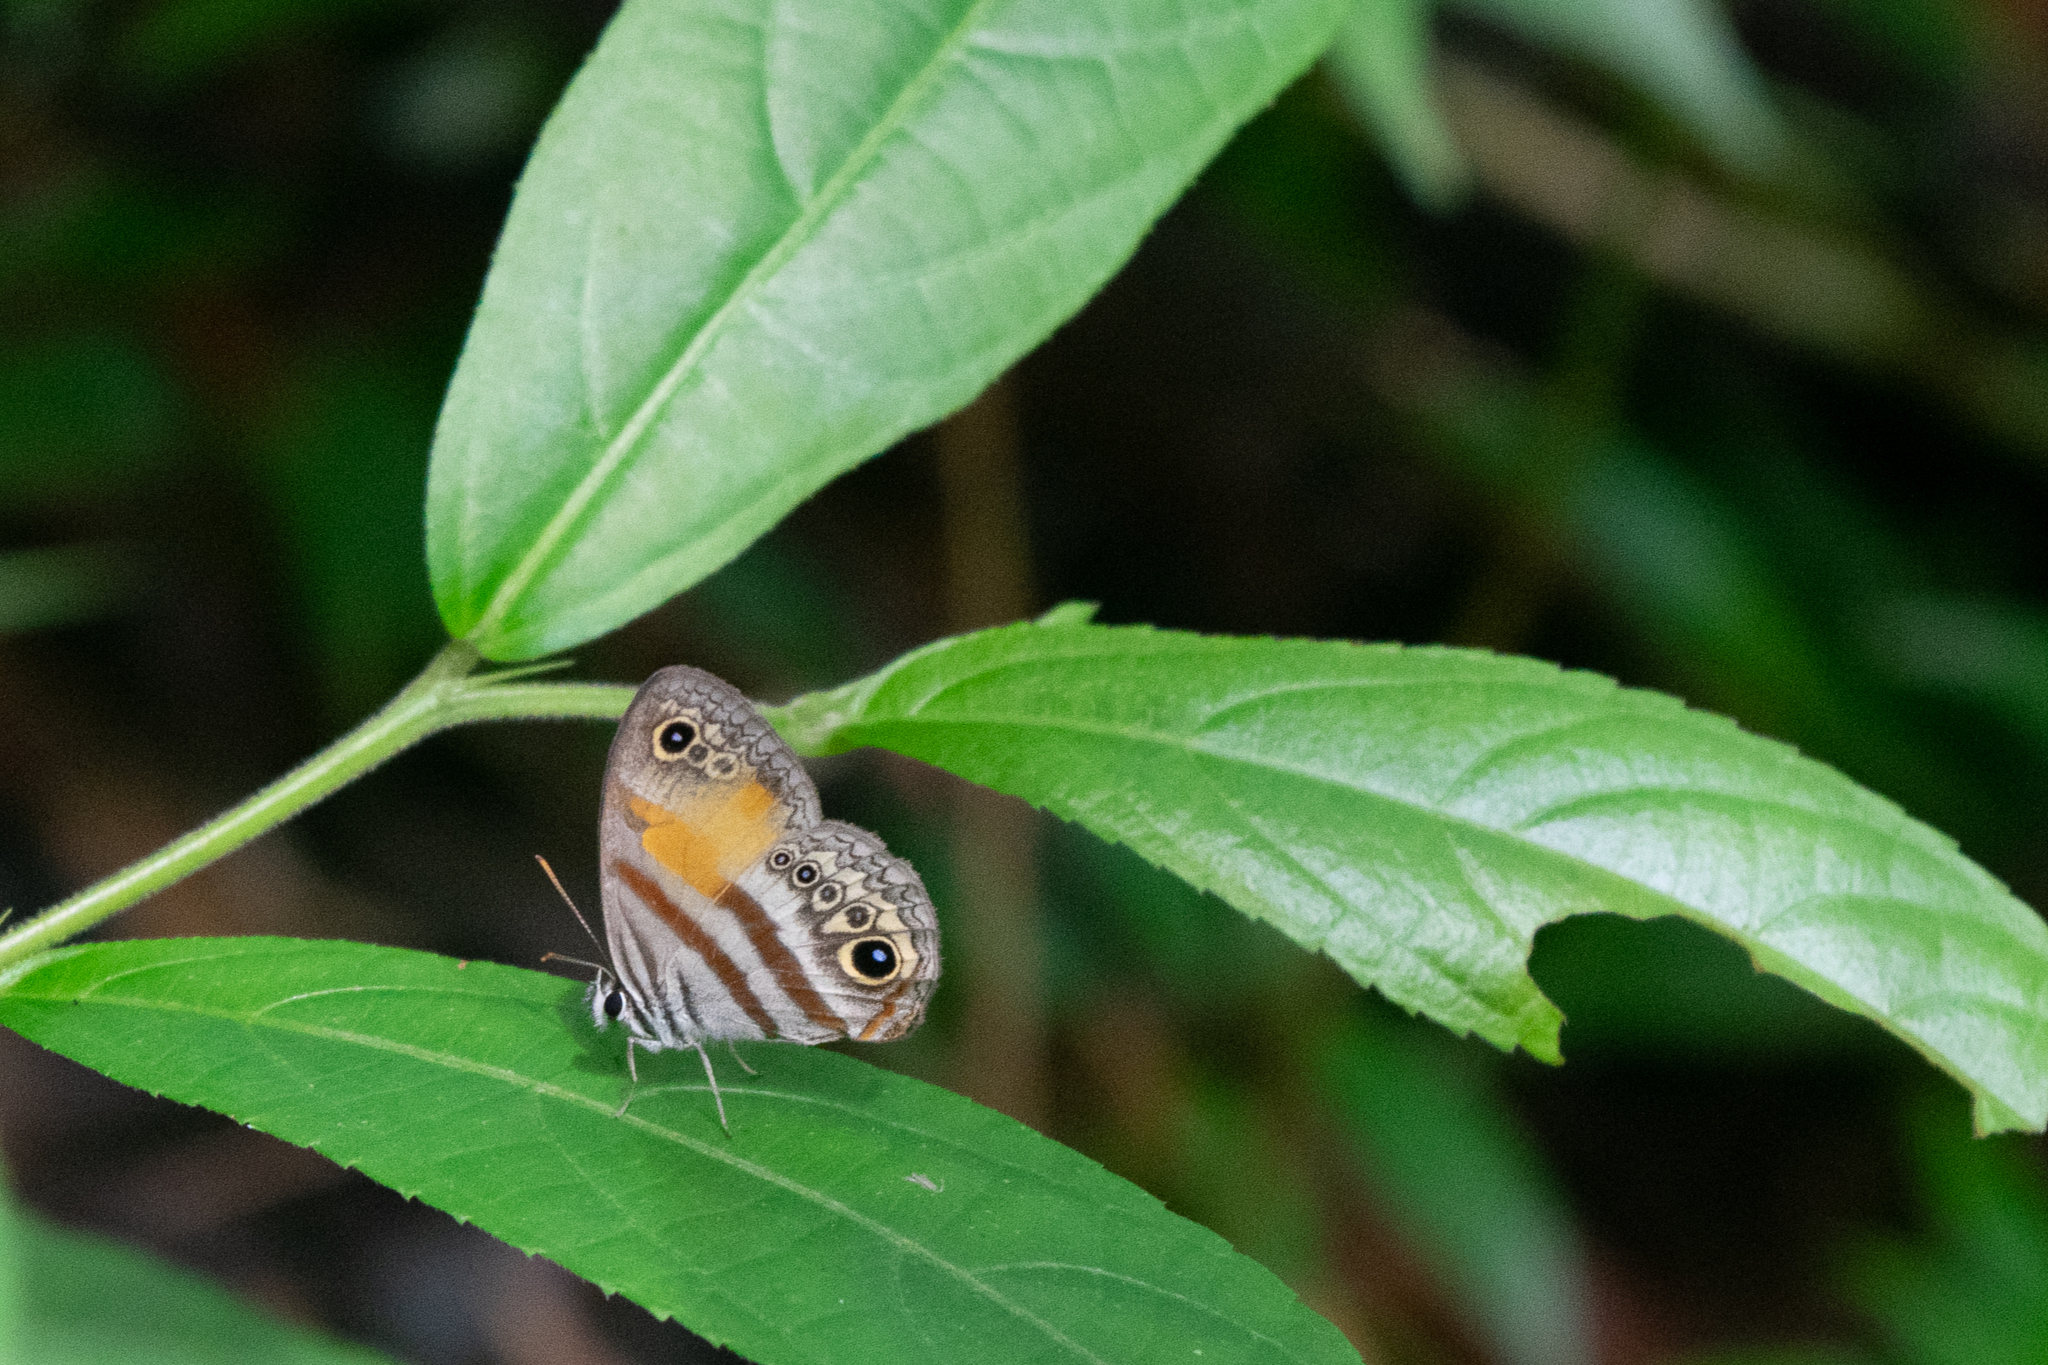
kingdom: Animalia
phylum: Arthropoda
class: Insecta
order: Lepidoptera
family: Nymphalidae
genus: Inbio
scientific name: Inbio hilara
